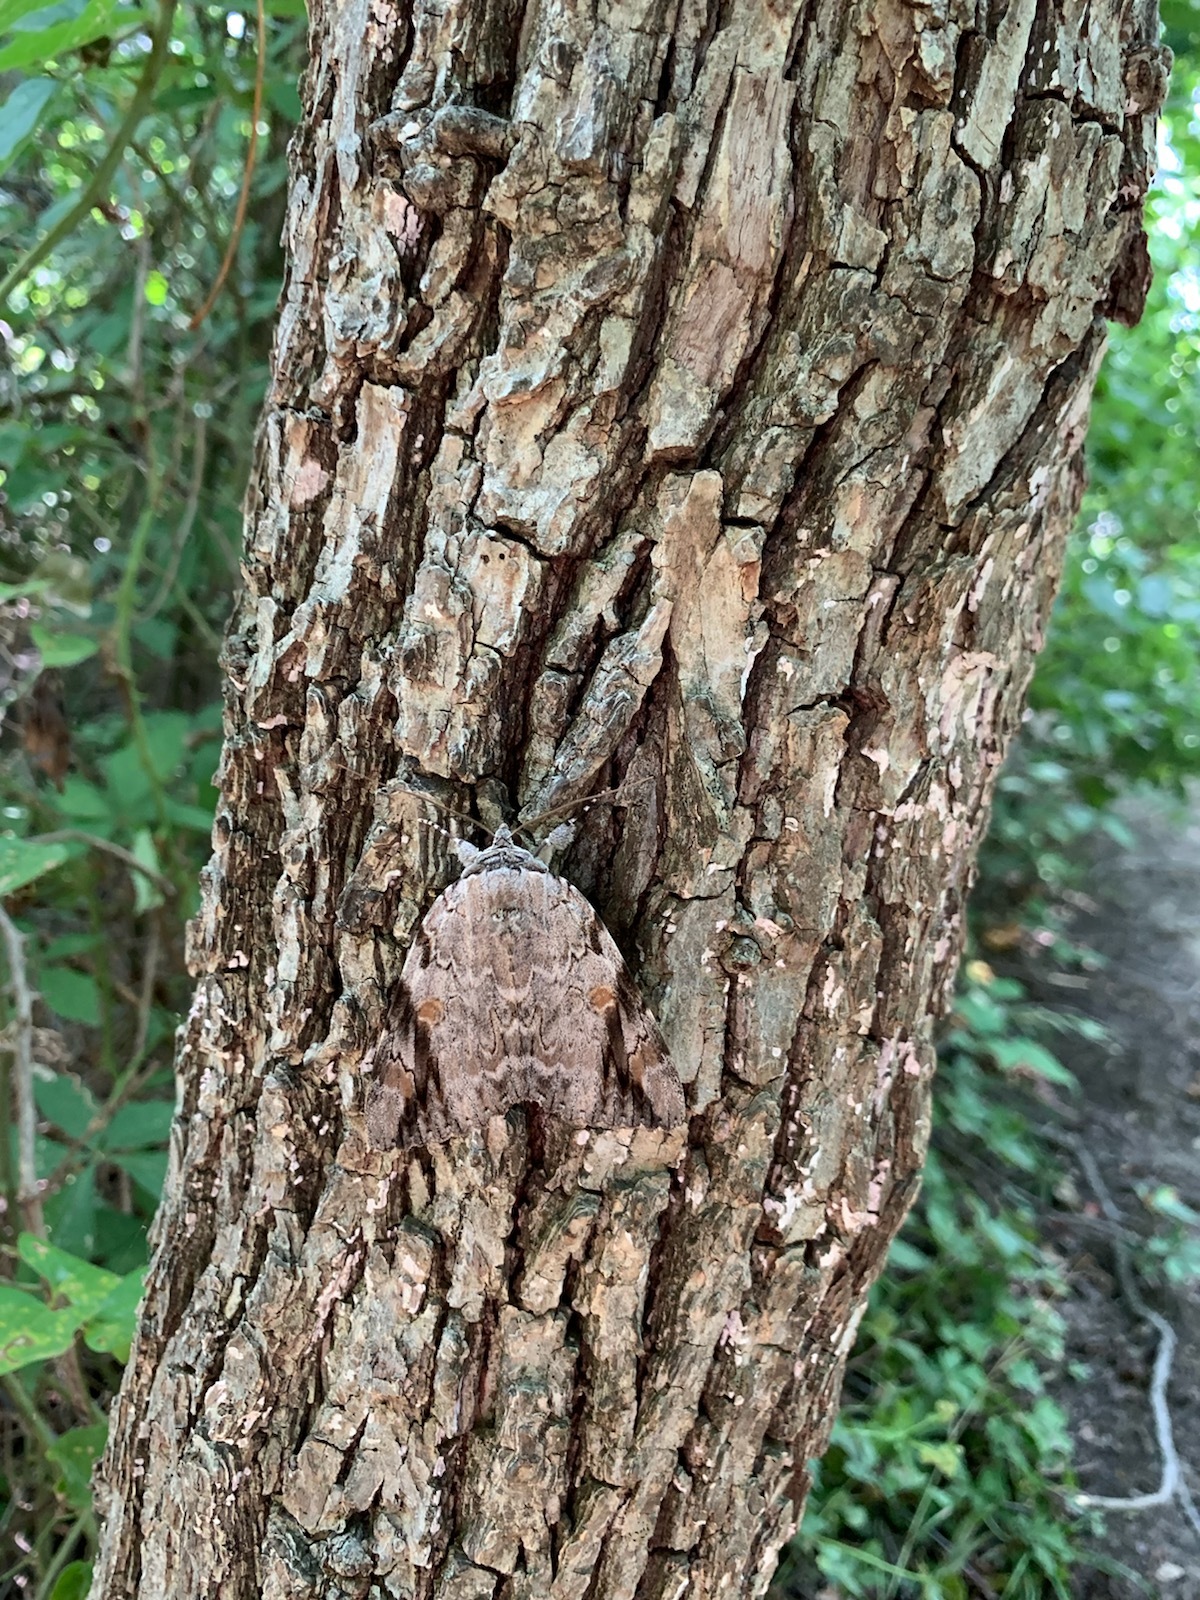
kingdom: Animalia
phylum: Arthropoda
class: Insecta
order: Lepidoptera
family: Erebidae
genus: Catocala
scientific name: Catocala maestosa
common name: Sad underwing
